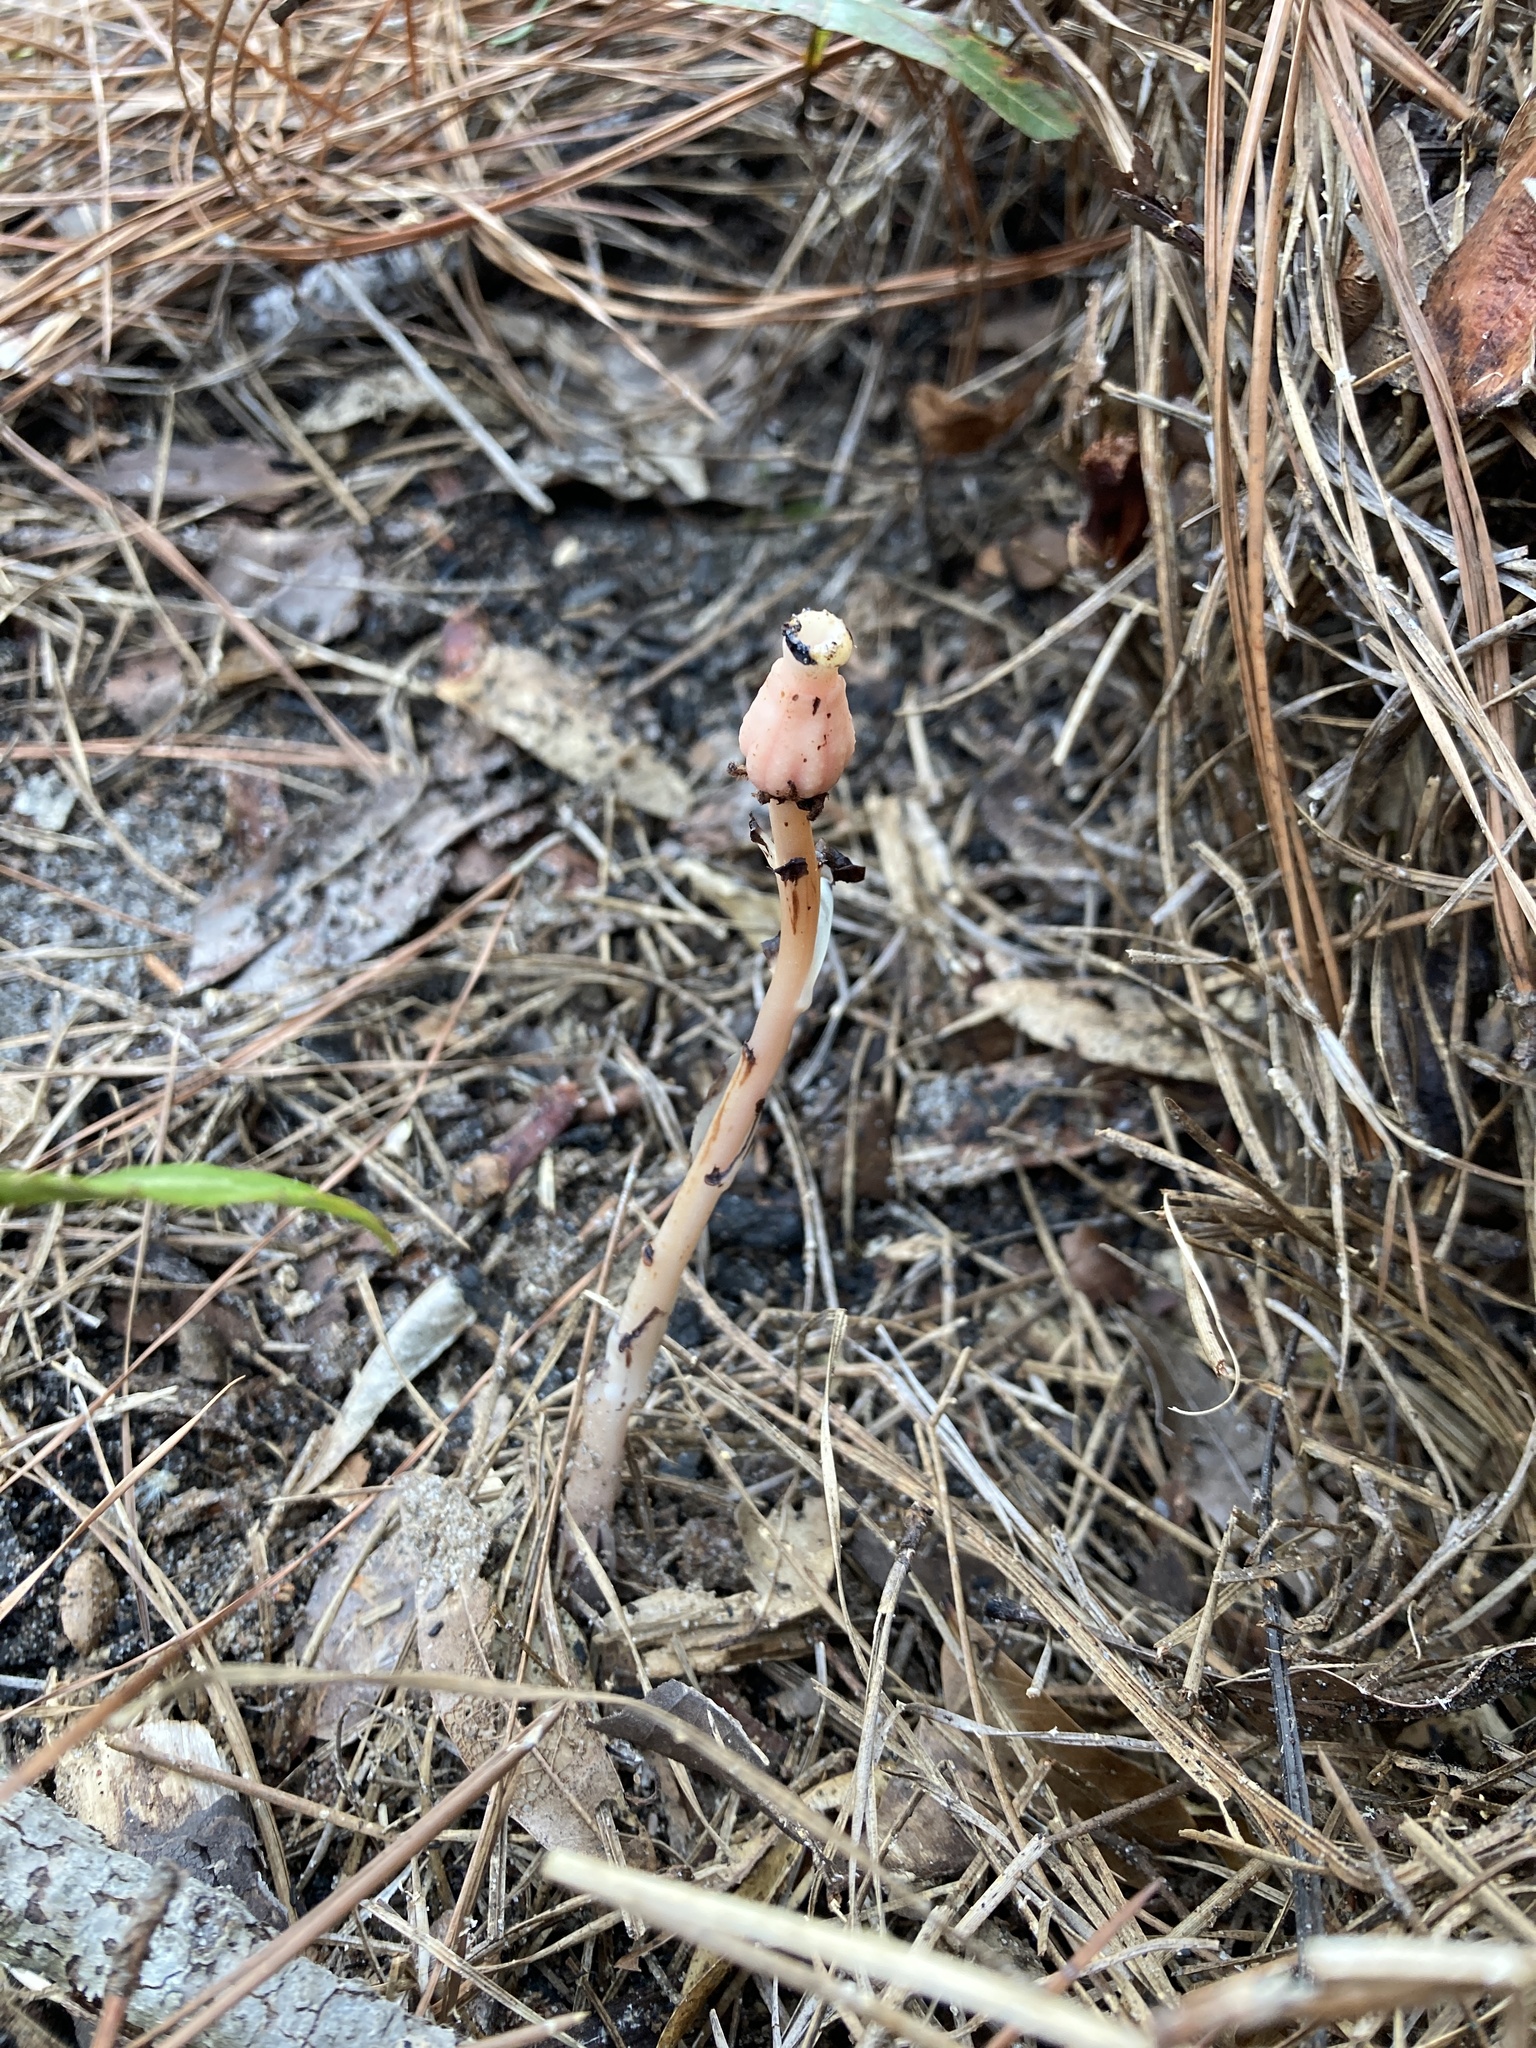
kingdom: Plantae
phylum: Tracheophyta
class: Magnoliopsida
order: Ericales
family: Ericaceae
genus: Monotropa
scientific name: Monotropa uniflora
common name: Convulsion root
